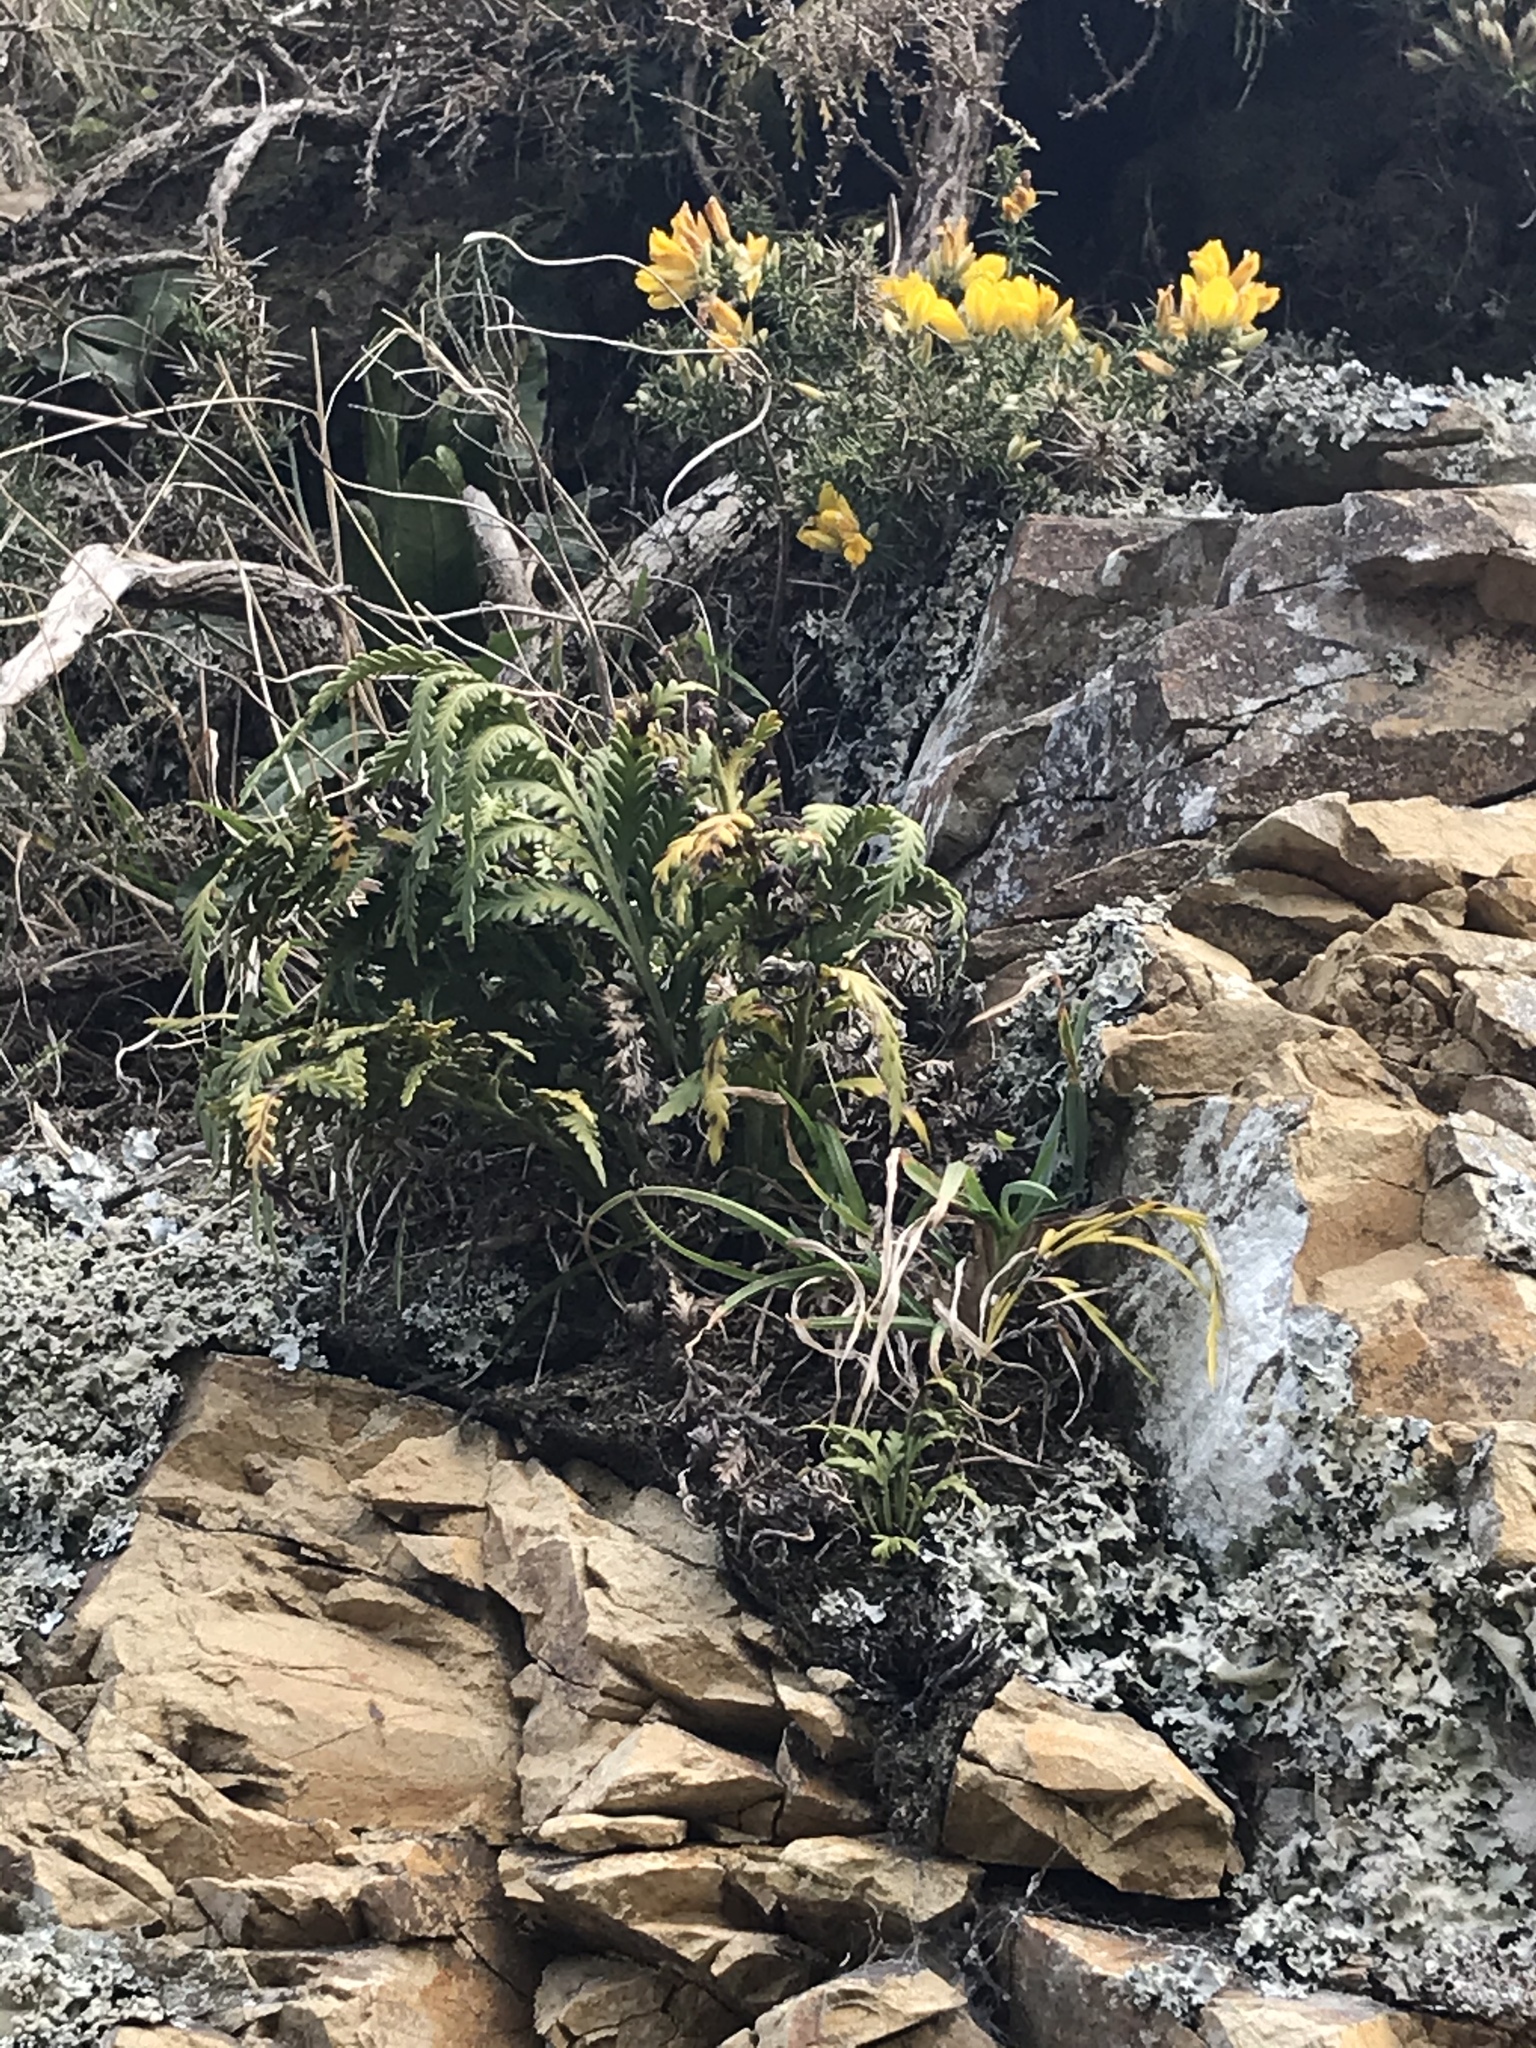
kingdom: Plantae
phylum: Tracheophyta
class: Polypodiopsida
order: Polypodiales
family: Aspleniaceae
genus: Asplenium
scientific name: Asplenium appendiculatum
